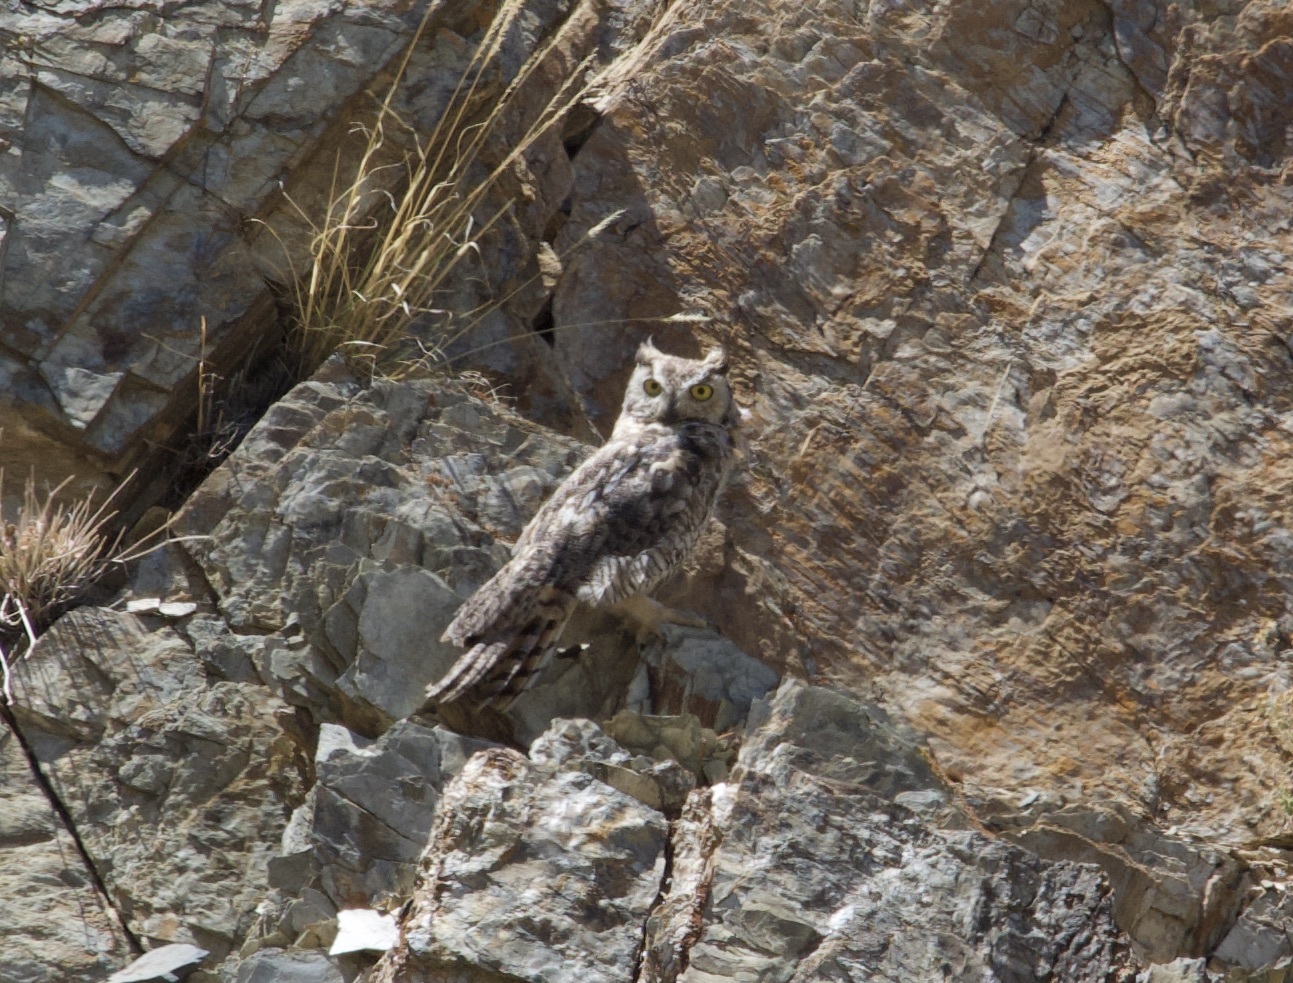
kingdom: Animalia
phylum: Chordata
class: Aves
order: Strigiformes
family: Strigidae
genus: Bubo
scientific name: Bubo virginianus
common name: Great horned owl
